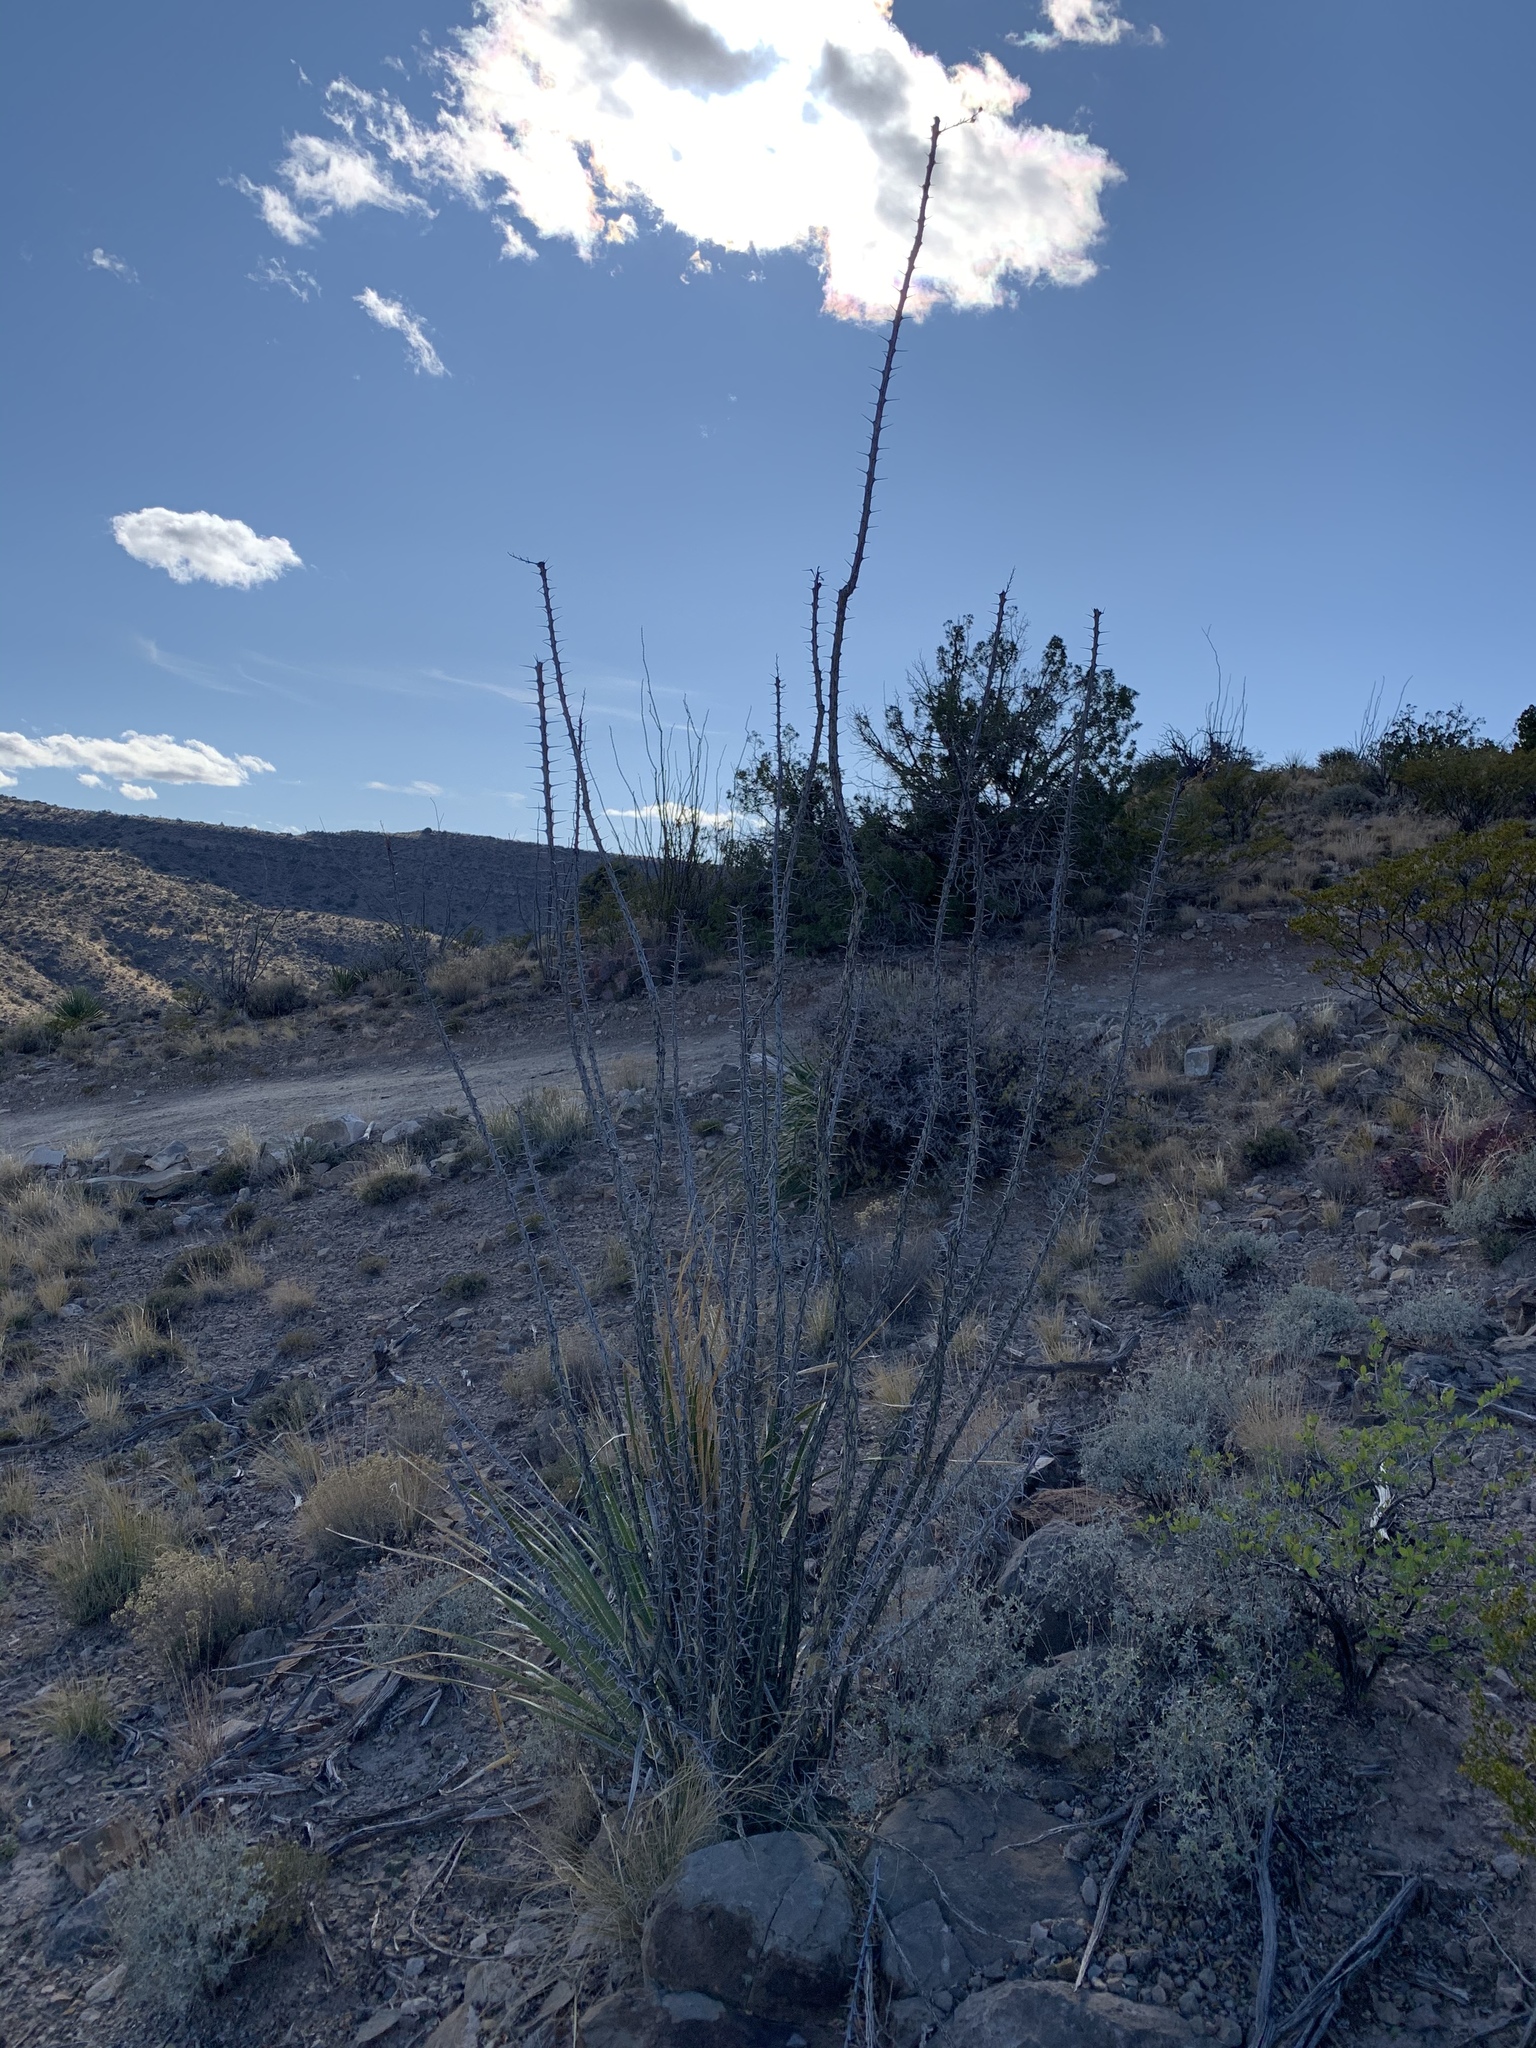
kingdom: Plantae
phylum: Tracheophyta
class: Magnoliopsida
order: Ericales
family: Fouquieriaceae
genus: Fouquieria
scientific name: Fouquieria splendens
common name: Vine-cactus
